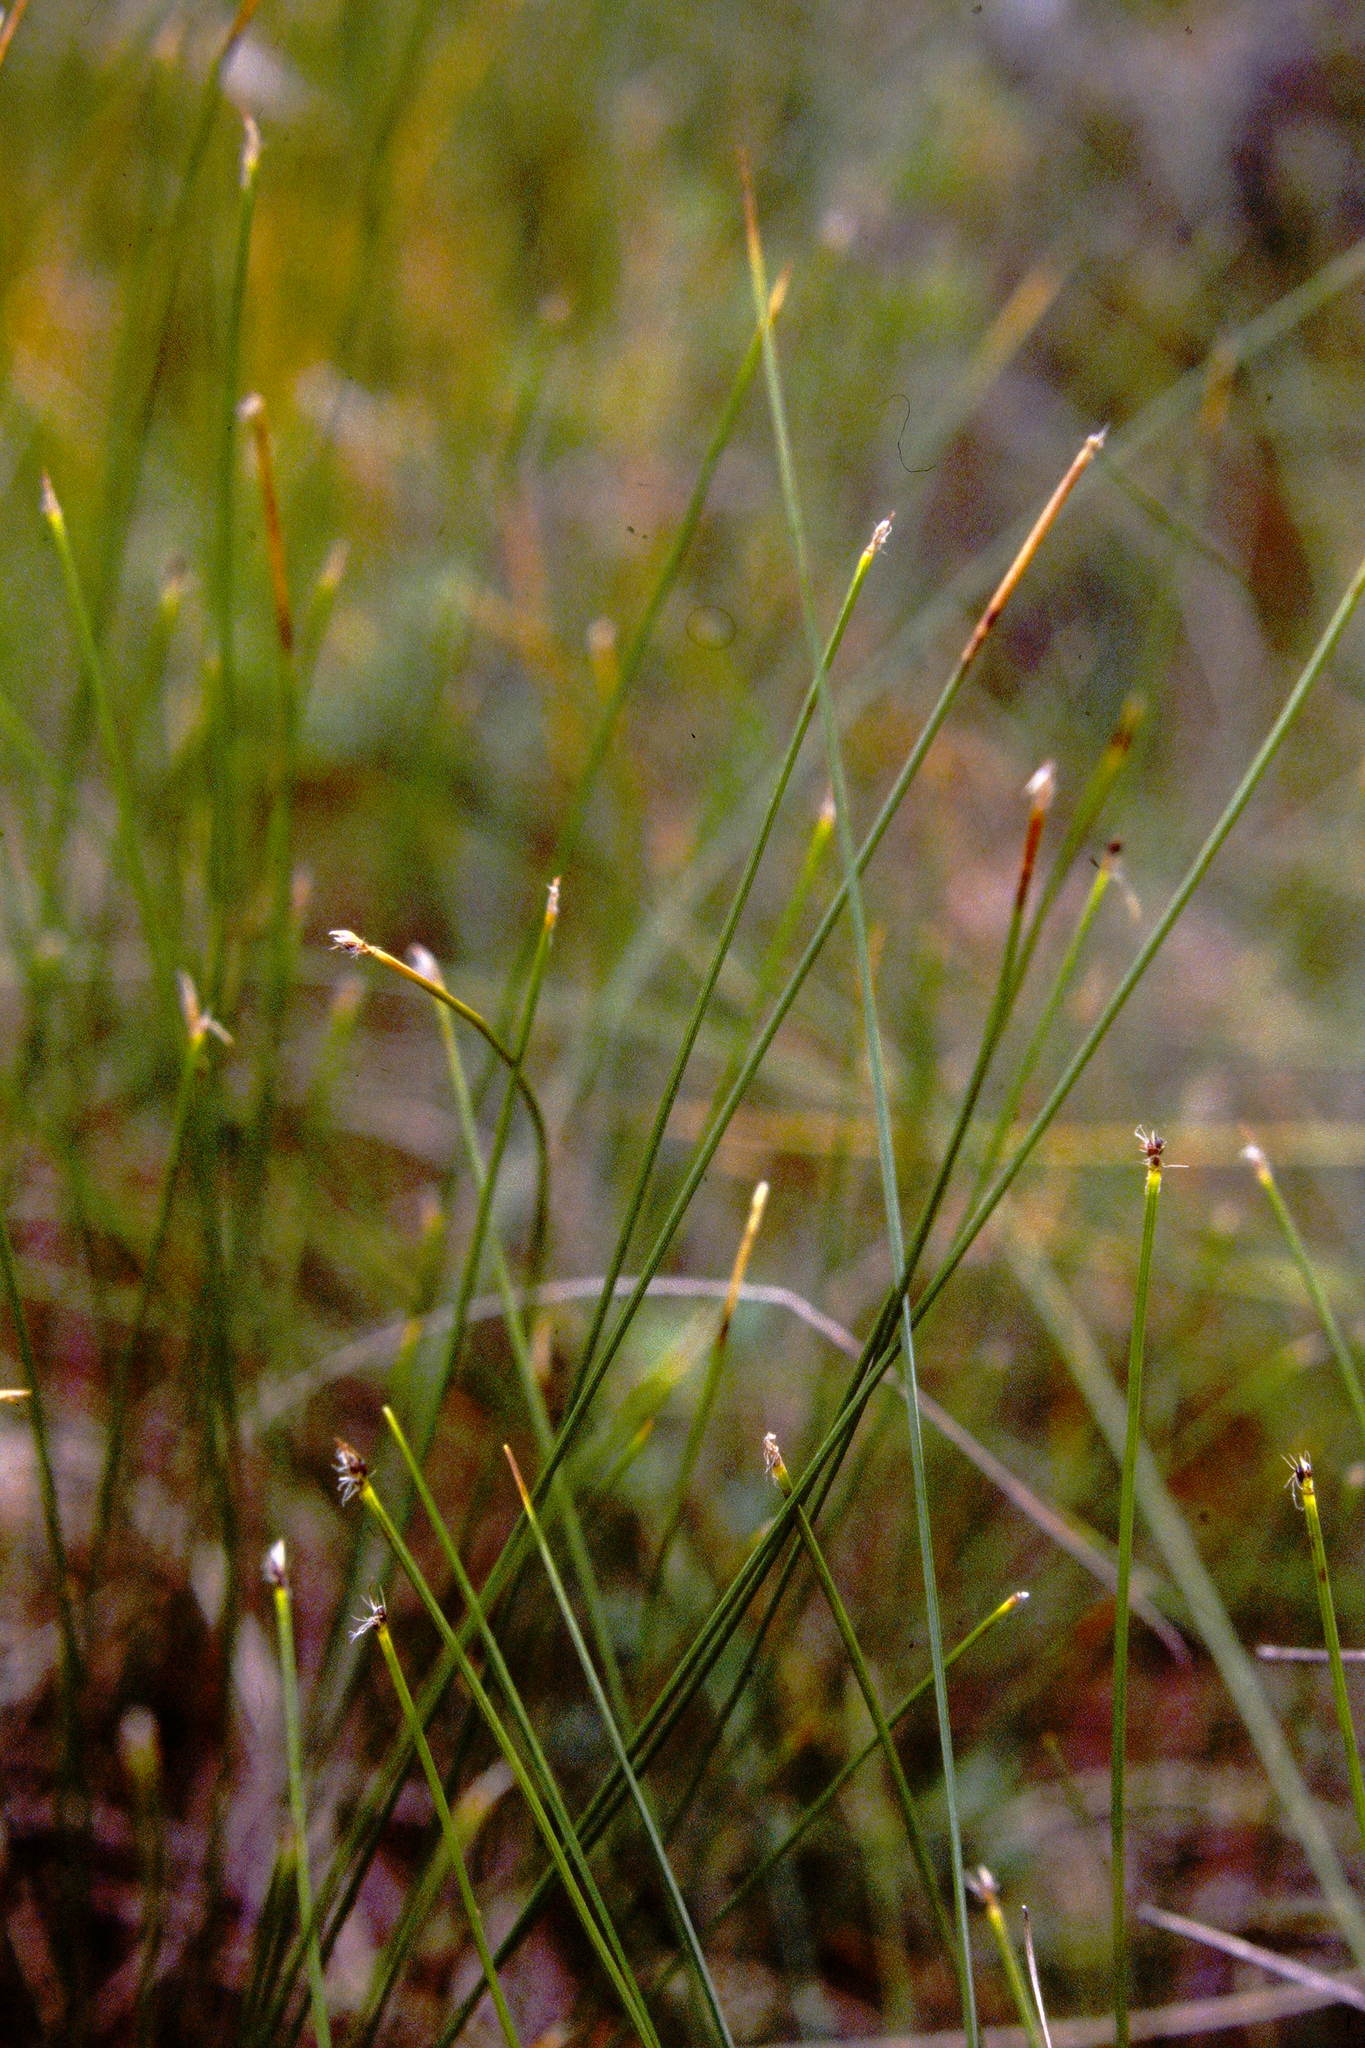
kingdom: Plantae
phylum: Tracheophyta
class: Liliopsida
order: Poales
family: Cyperaceae
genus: Trichophorum
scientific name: Trichophorum cespitosum
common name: Cespitose bulrush
